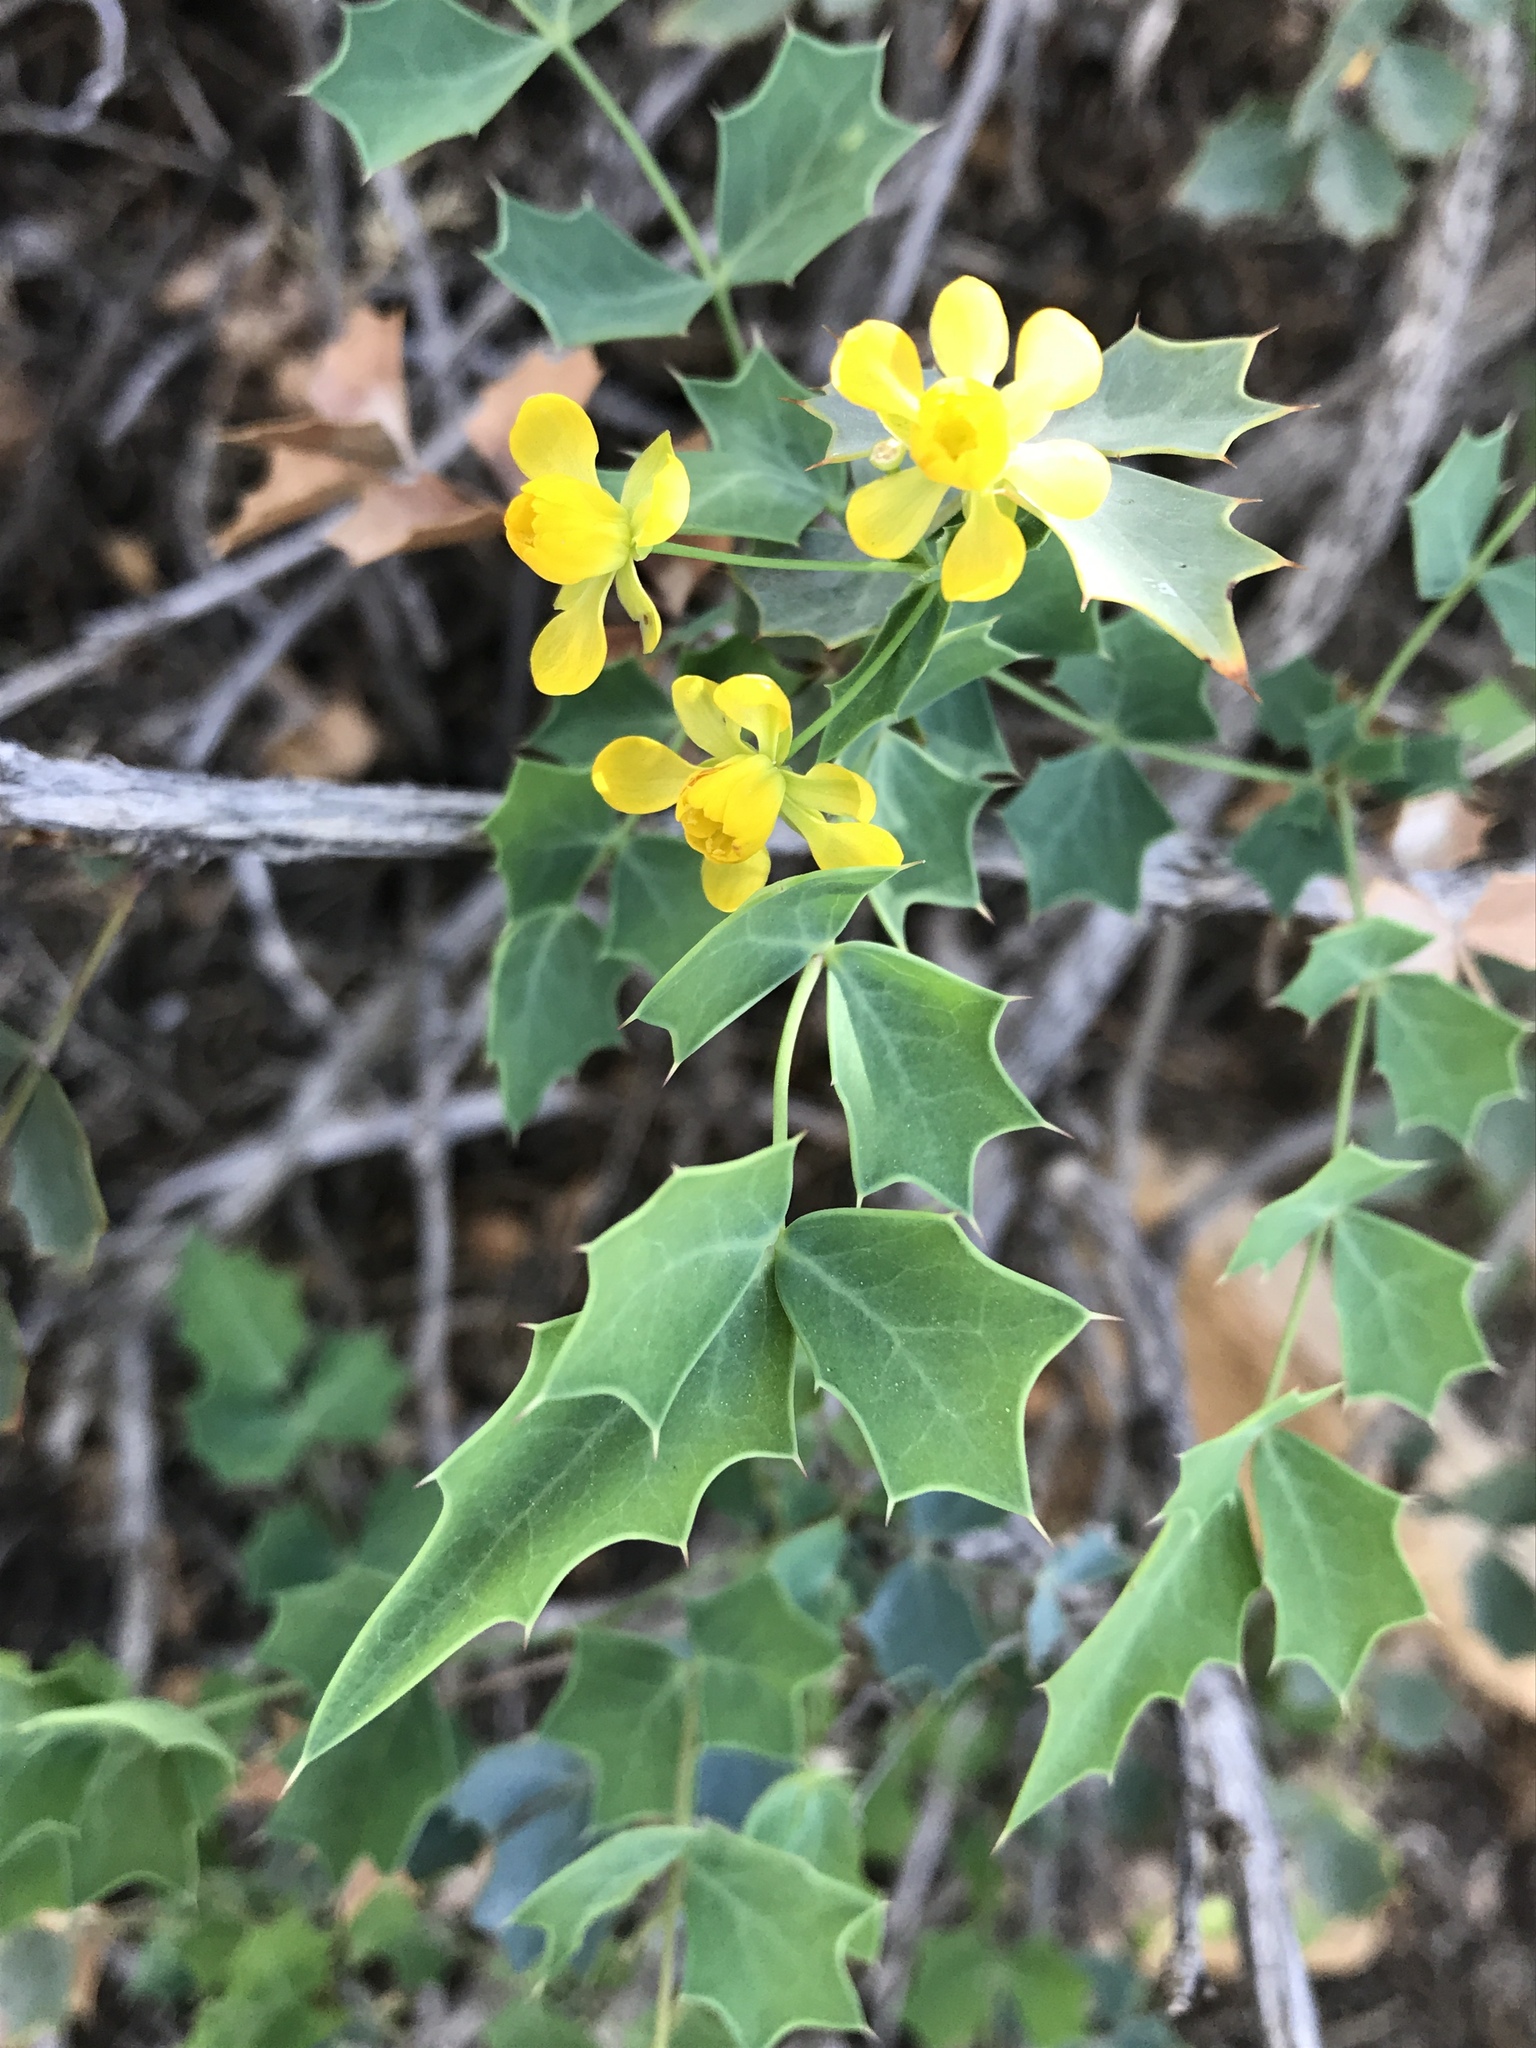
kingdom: Plantae
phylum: Tracheophyta
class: Magnoliopsida
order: Ranunculales
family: Berberidaceae
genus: Alloberberis
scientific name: Alloberberis fremontii
